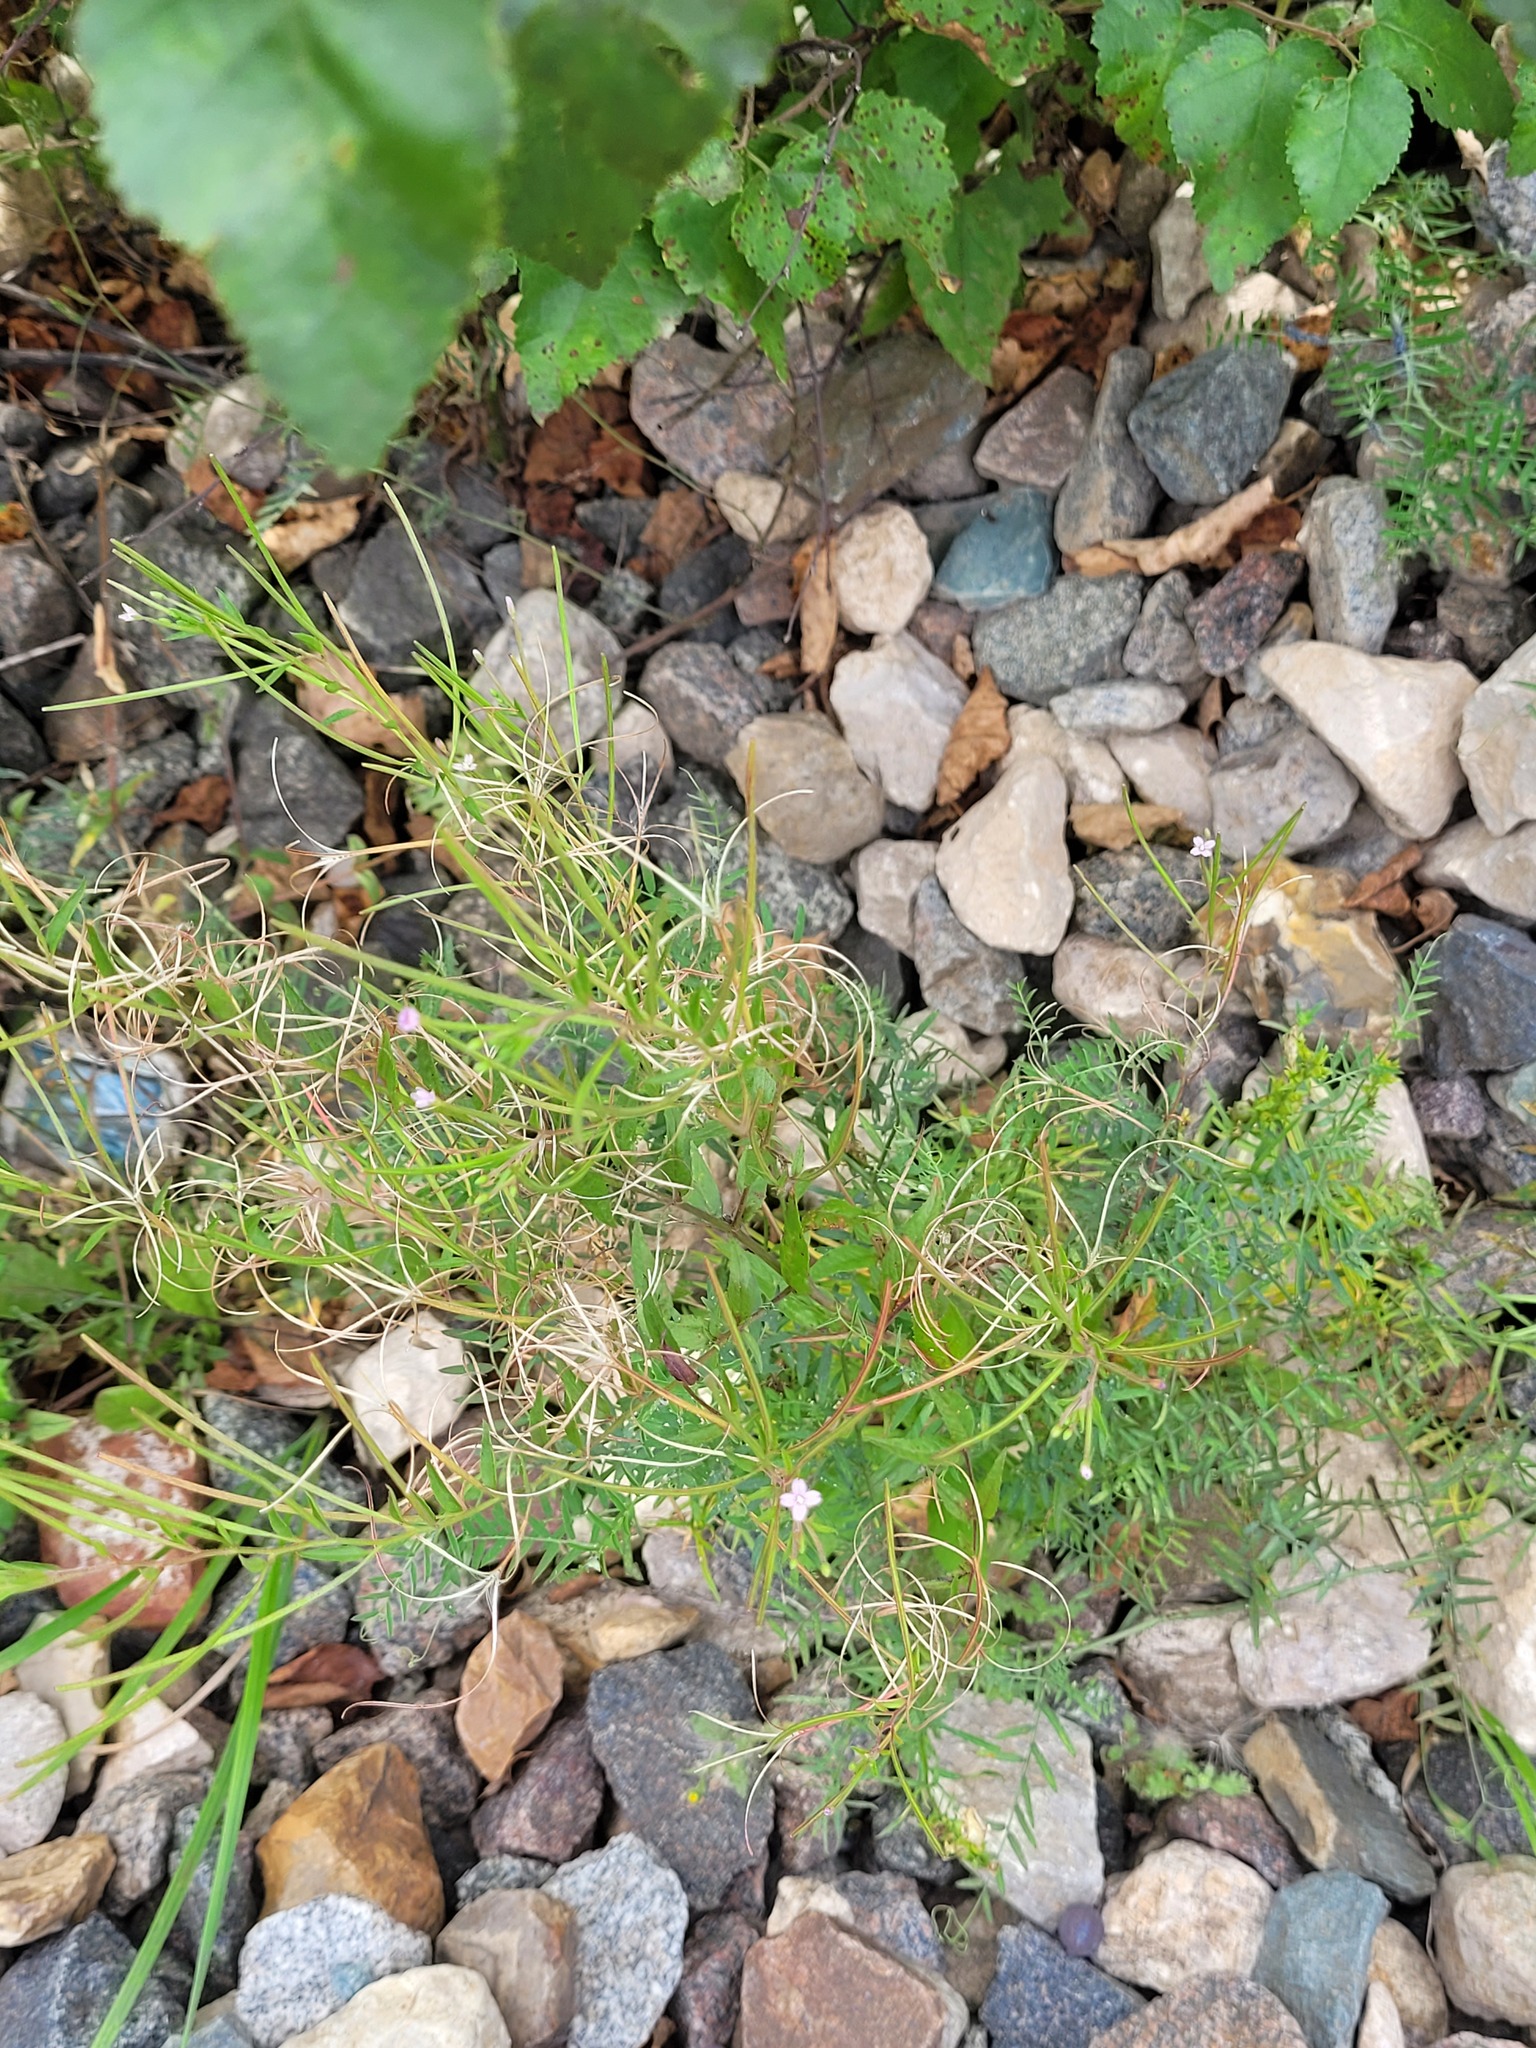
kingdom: Plantae
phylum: Tracheophyta
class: Magnoliopsida
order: Myrtales
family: Onagraceae
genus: Epilobium
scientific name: Epilobium ciliatum
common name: American willowherb
